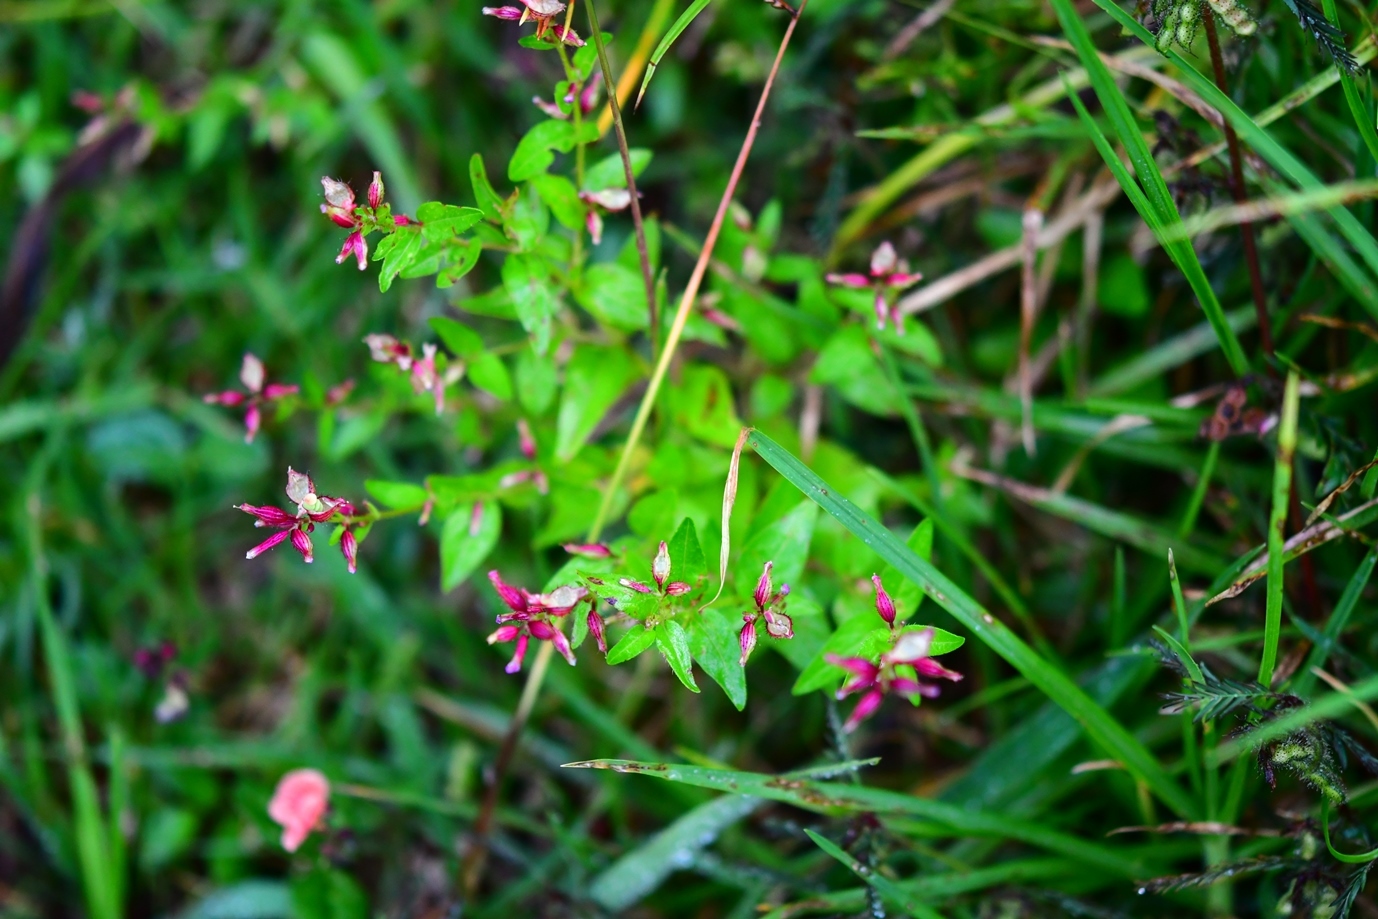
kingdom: Plantae
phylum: Tracheophyta
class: Magnoliopsida
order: Myrtales
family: Lythraceae
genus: Cuphea
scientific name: Cuphea wrightii
